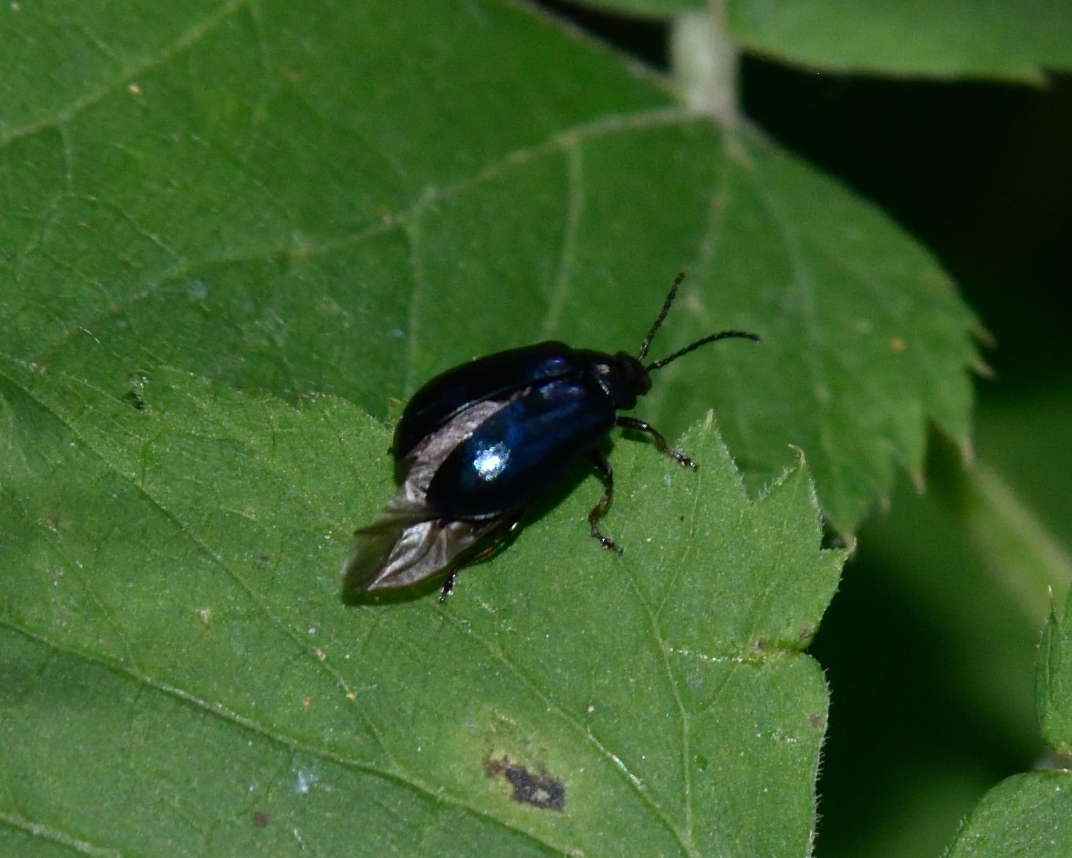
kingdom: Animalia
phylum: Arthropoda
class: Insecta
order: Coleoptera
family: Chrysomelidae
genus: Agelastica
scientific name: Agelastica alni
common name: Alder leaf beetle
